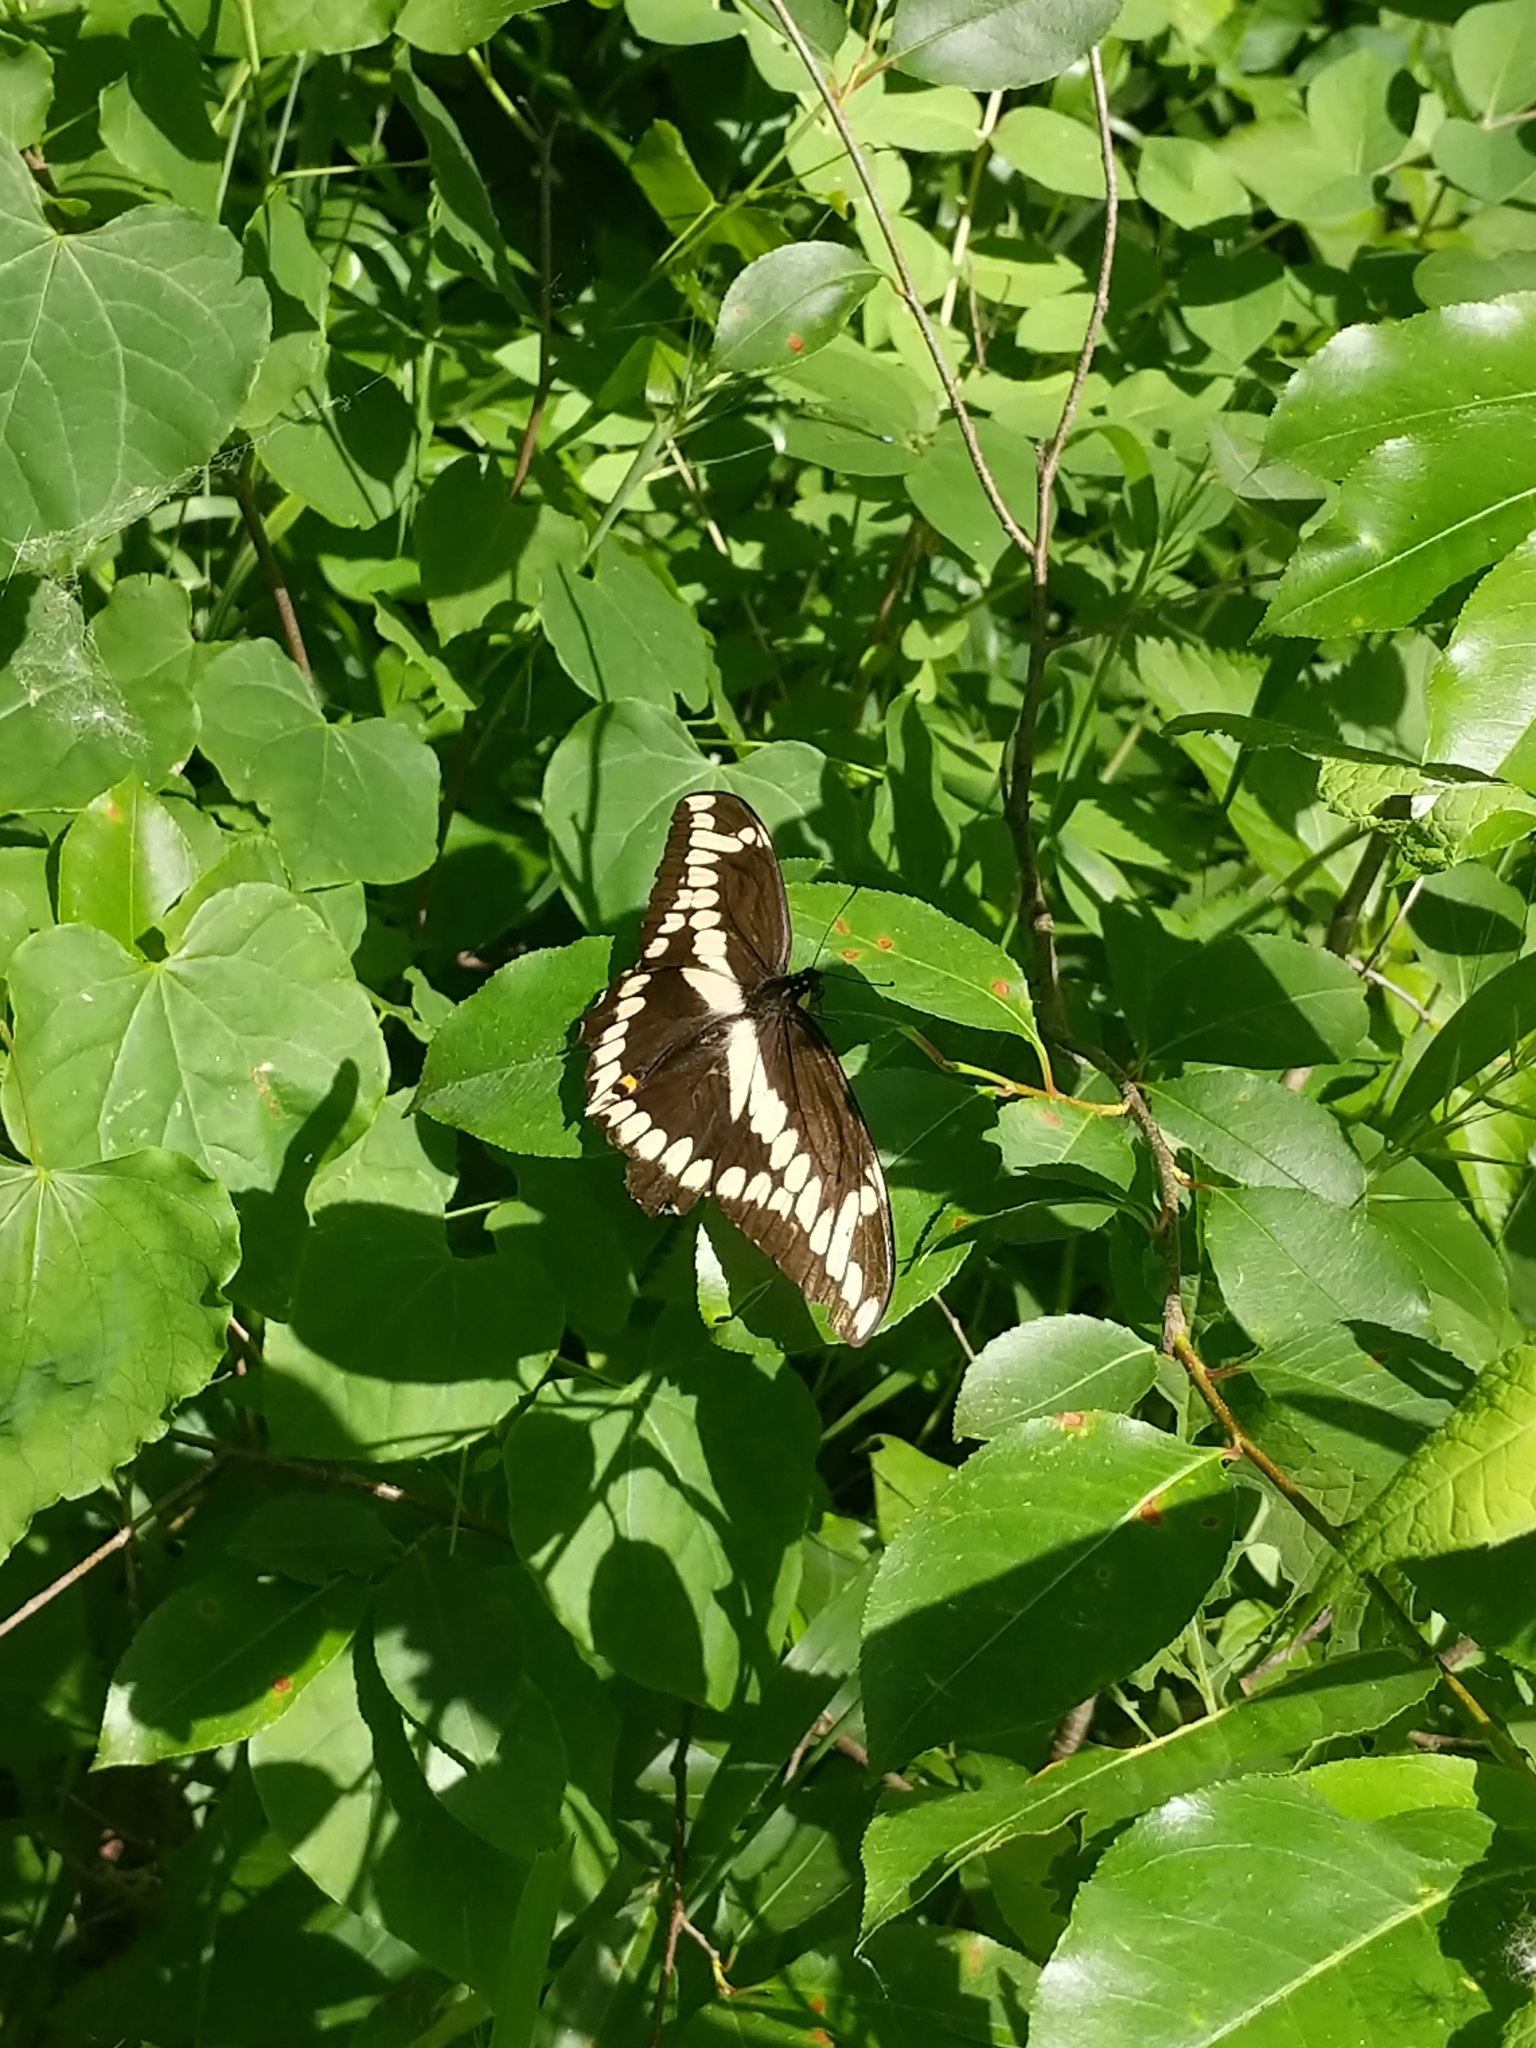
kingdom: Animalia
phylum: Arthropoda
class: Insecta
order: Lepidoptera
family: Papilionidae
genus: Papilio
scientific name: Papilio cresphontes
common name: Giant swallowtail
